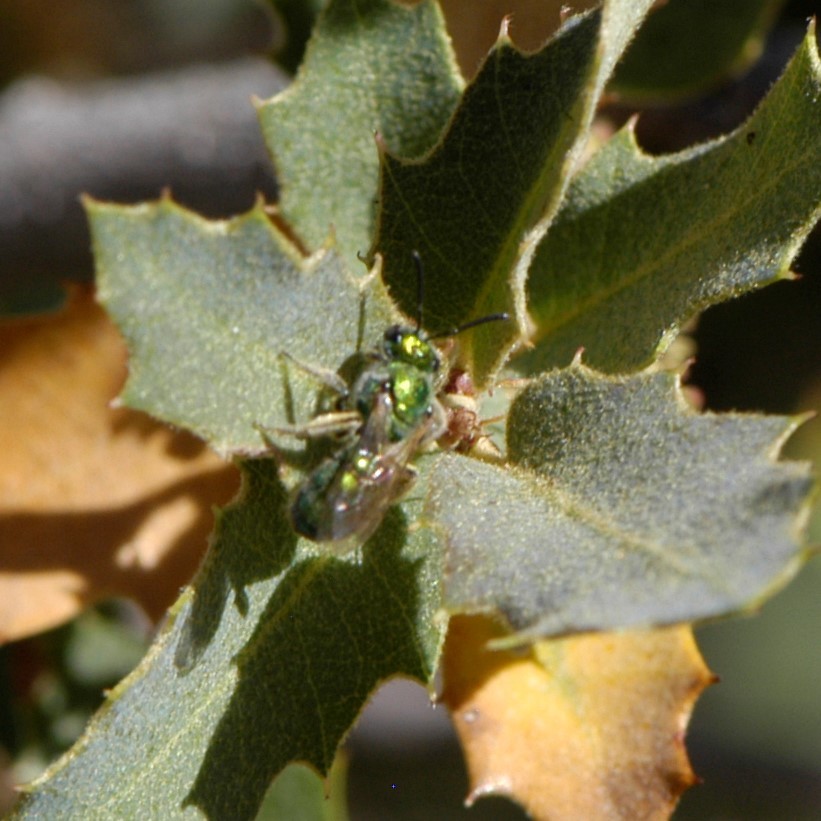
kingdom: Animalia
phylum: Arthropoda
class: Insecta
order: Hymenoptera
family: Halictidae
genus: Augochlorella
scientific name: Augochlorella
